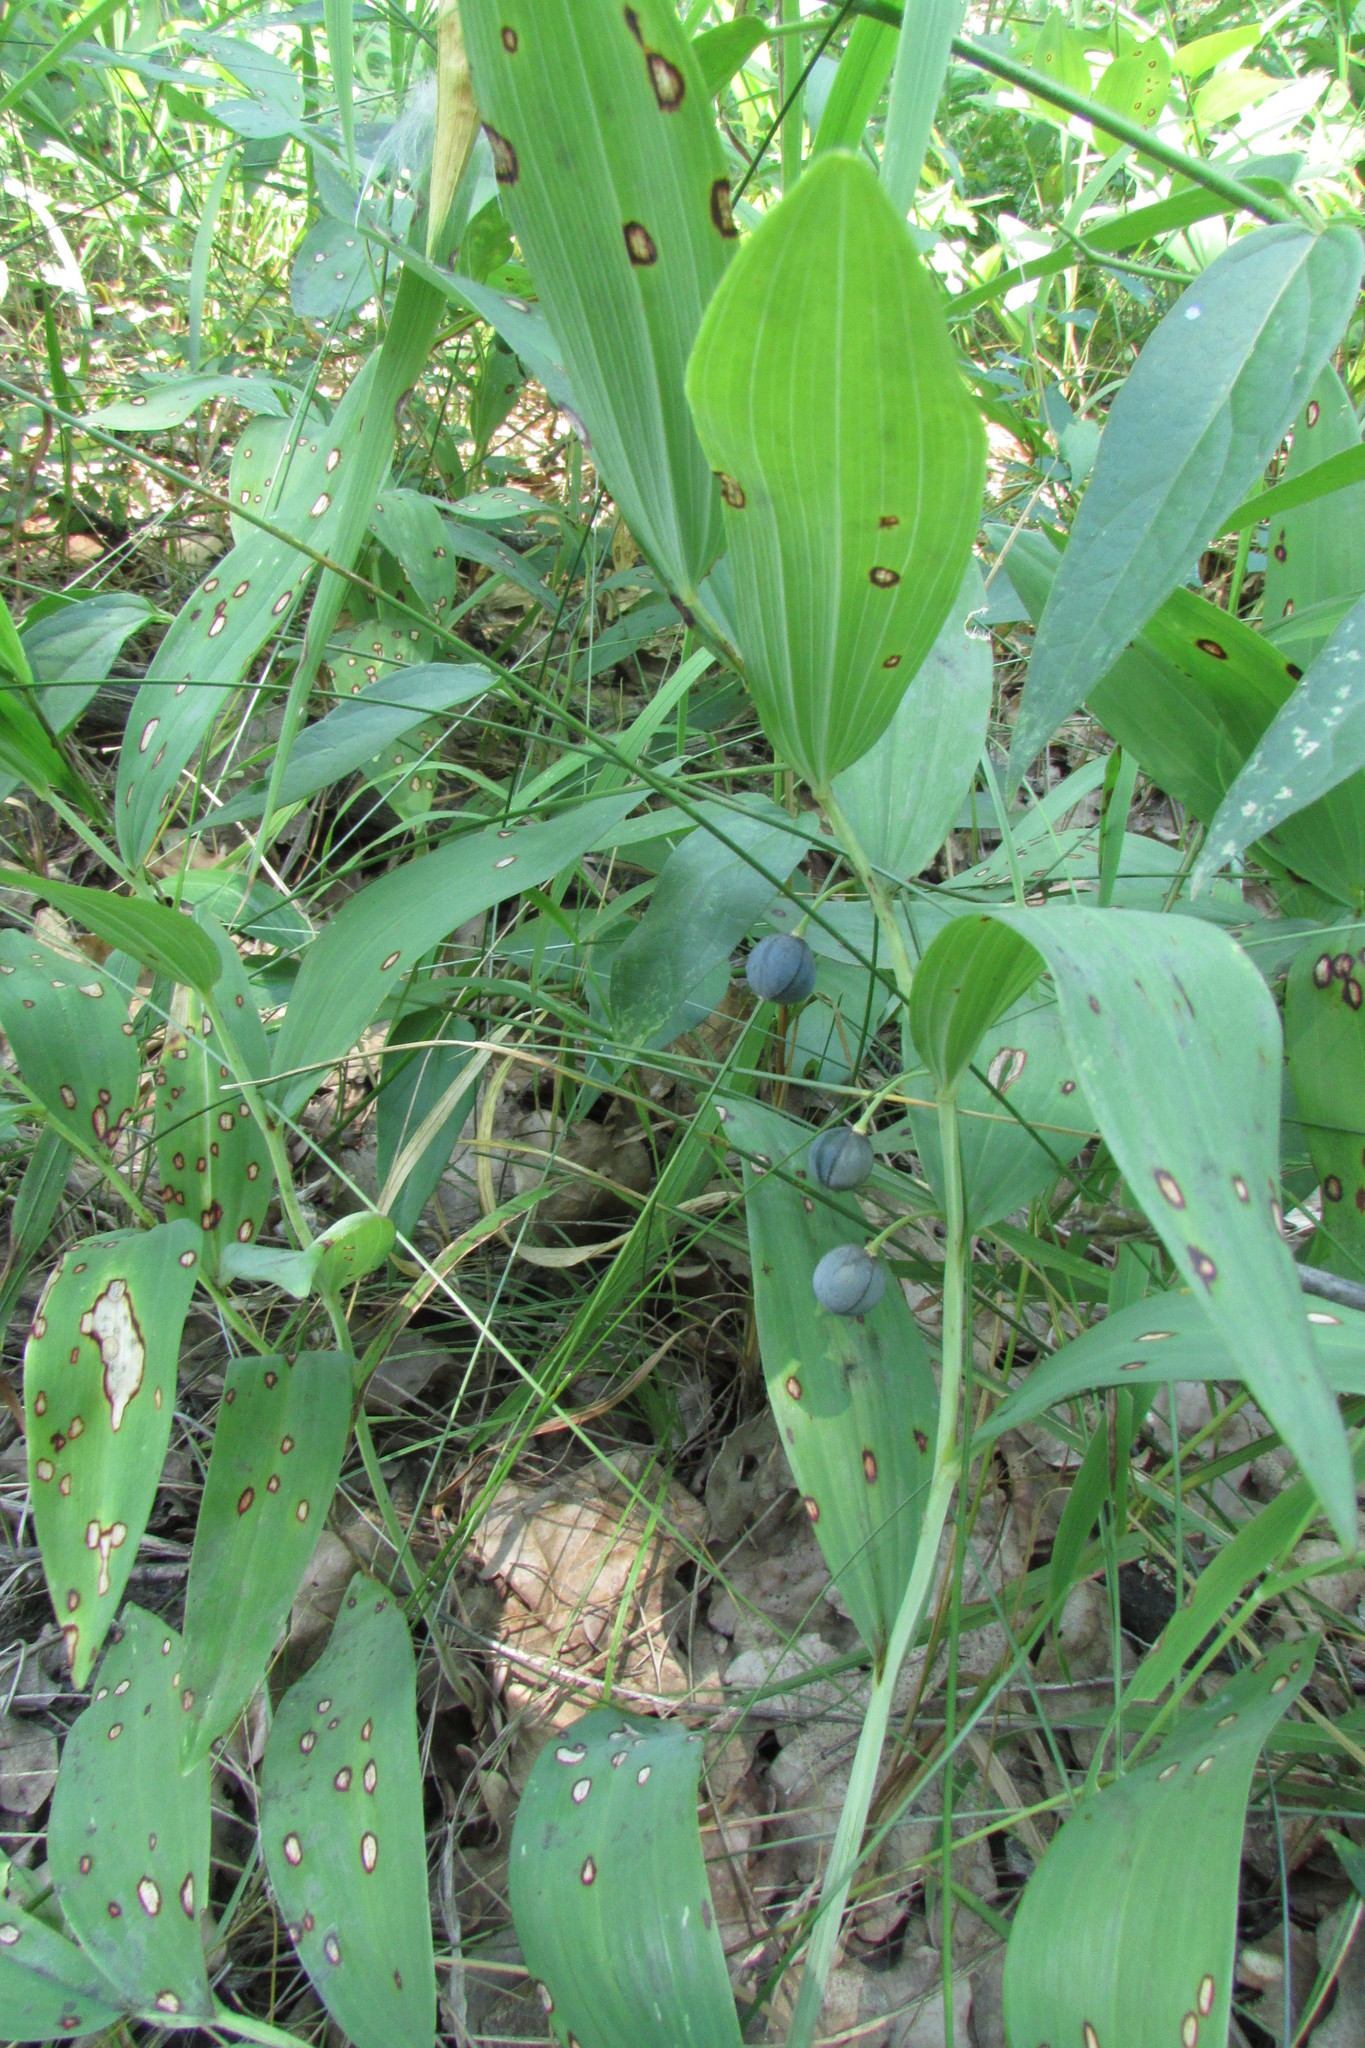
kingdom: Plantae
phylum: Tracheophyta
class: Liliopsida
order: Asparagales
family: Asparagaceae
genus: Polygonatum
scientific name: Polygonatum odoratum
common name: Angular solomon's-seal
